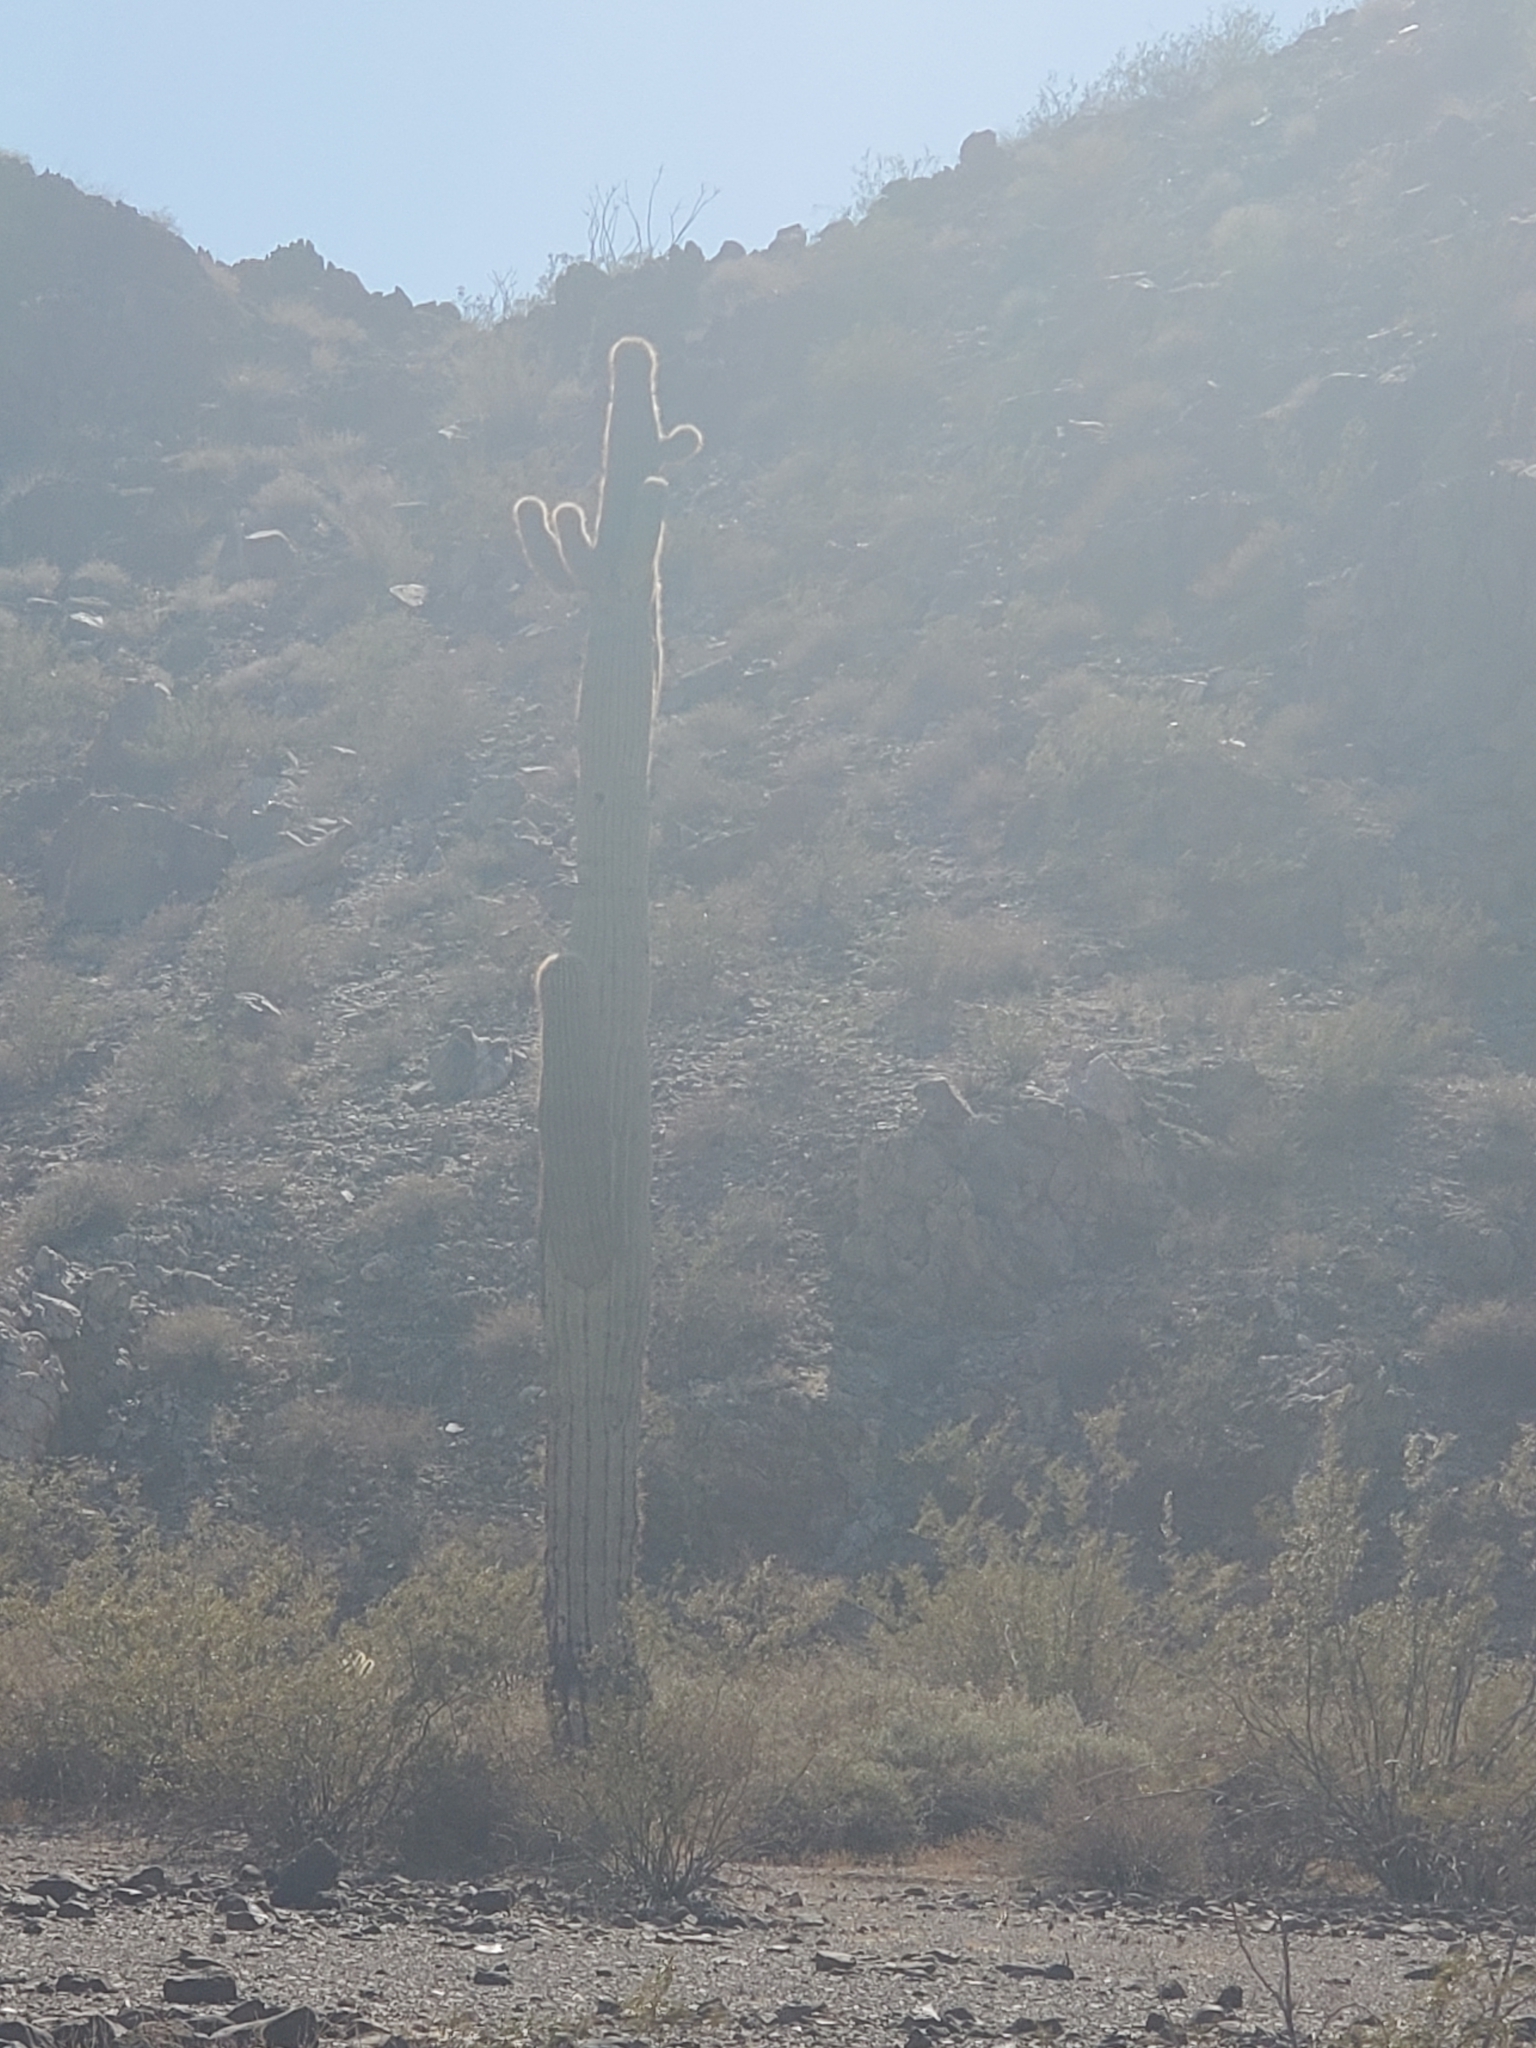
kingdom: Plantae
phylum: Tracheophyta
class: Magnoliopsida
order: Caryophyllales
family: Cactaceae
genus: Carnegiea
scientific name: Carnegiea gigantea
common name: Saguaro
